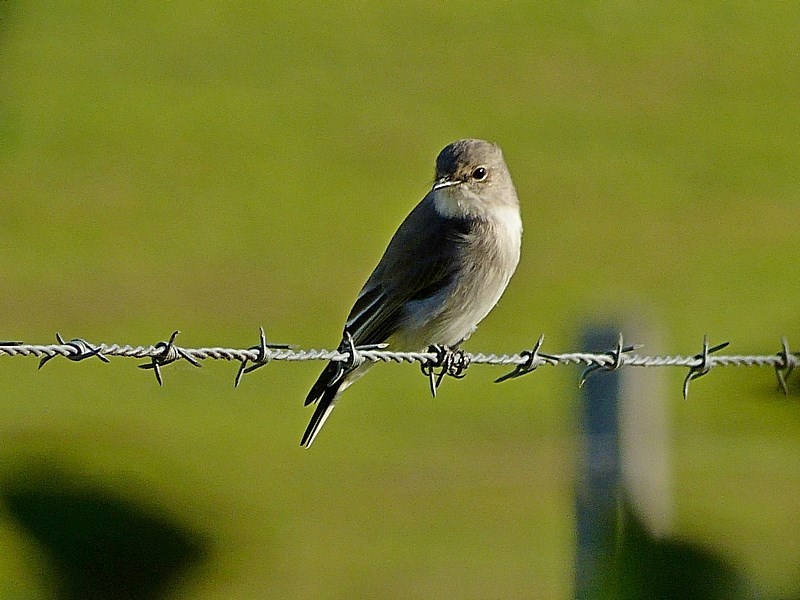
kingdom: Animalia
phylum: Chordata
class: Aves
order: Passeriformes
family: Petroicidae
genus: Microeca
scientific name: Microeca fascinans
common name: Jacky winter
